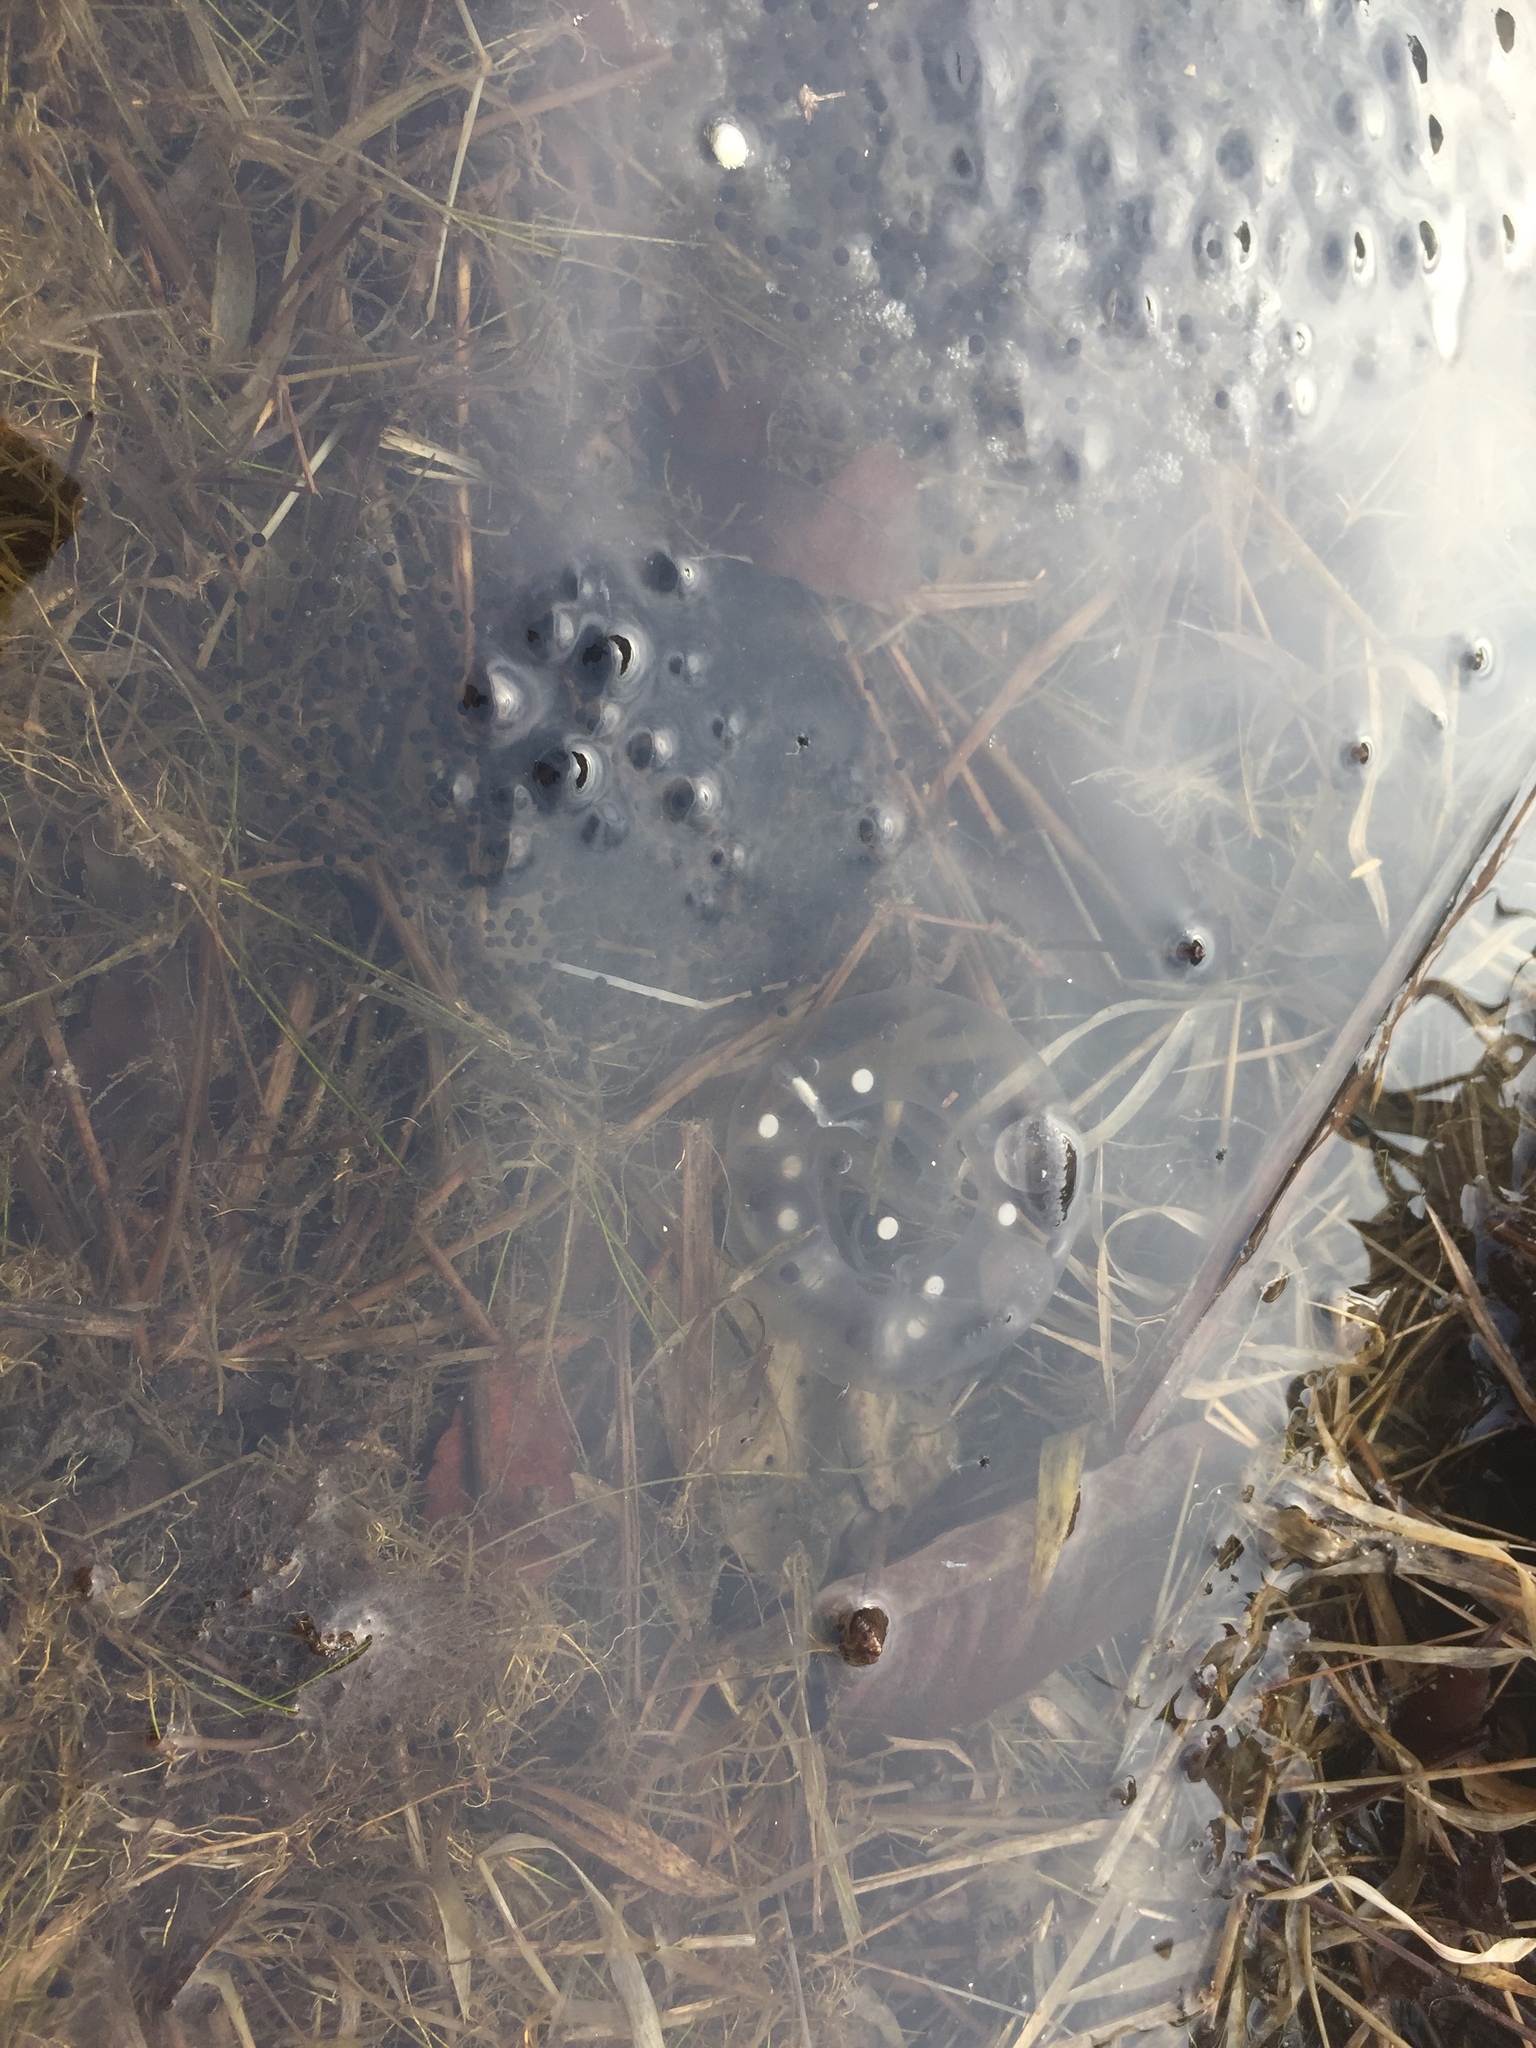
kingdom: Animalia
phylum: Chordata
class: Amphibia
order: Caudata
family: Hynobiidae
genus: Hynobius
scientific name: Hynobius leechii
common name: Gensan salamander
